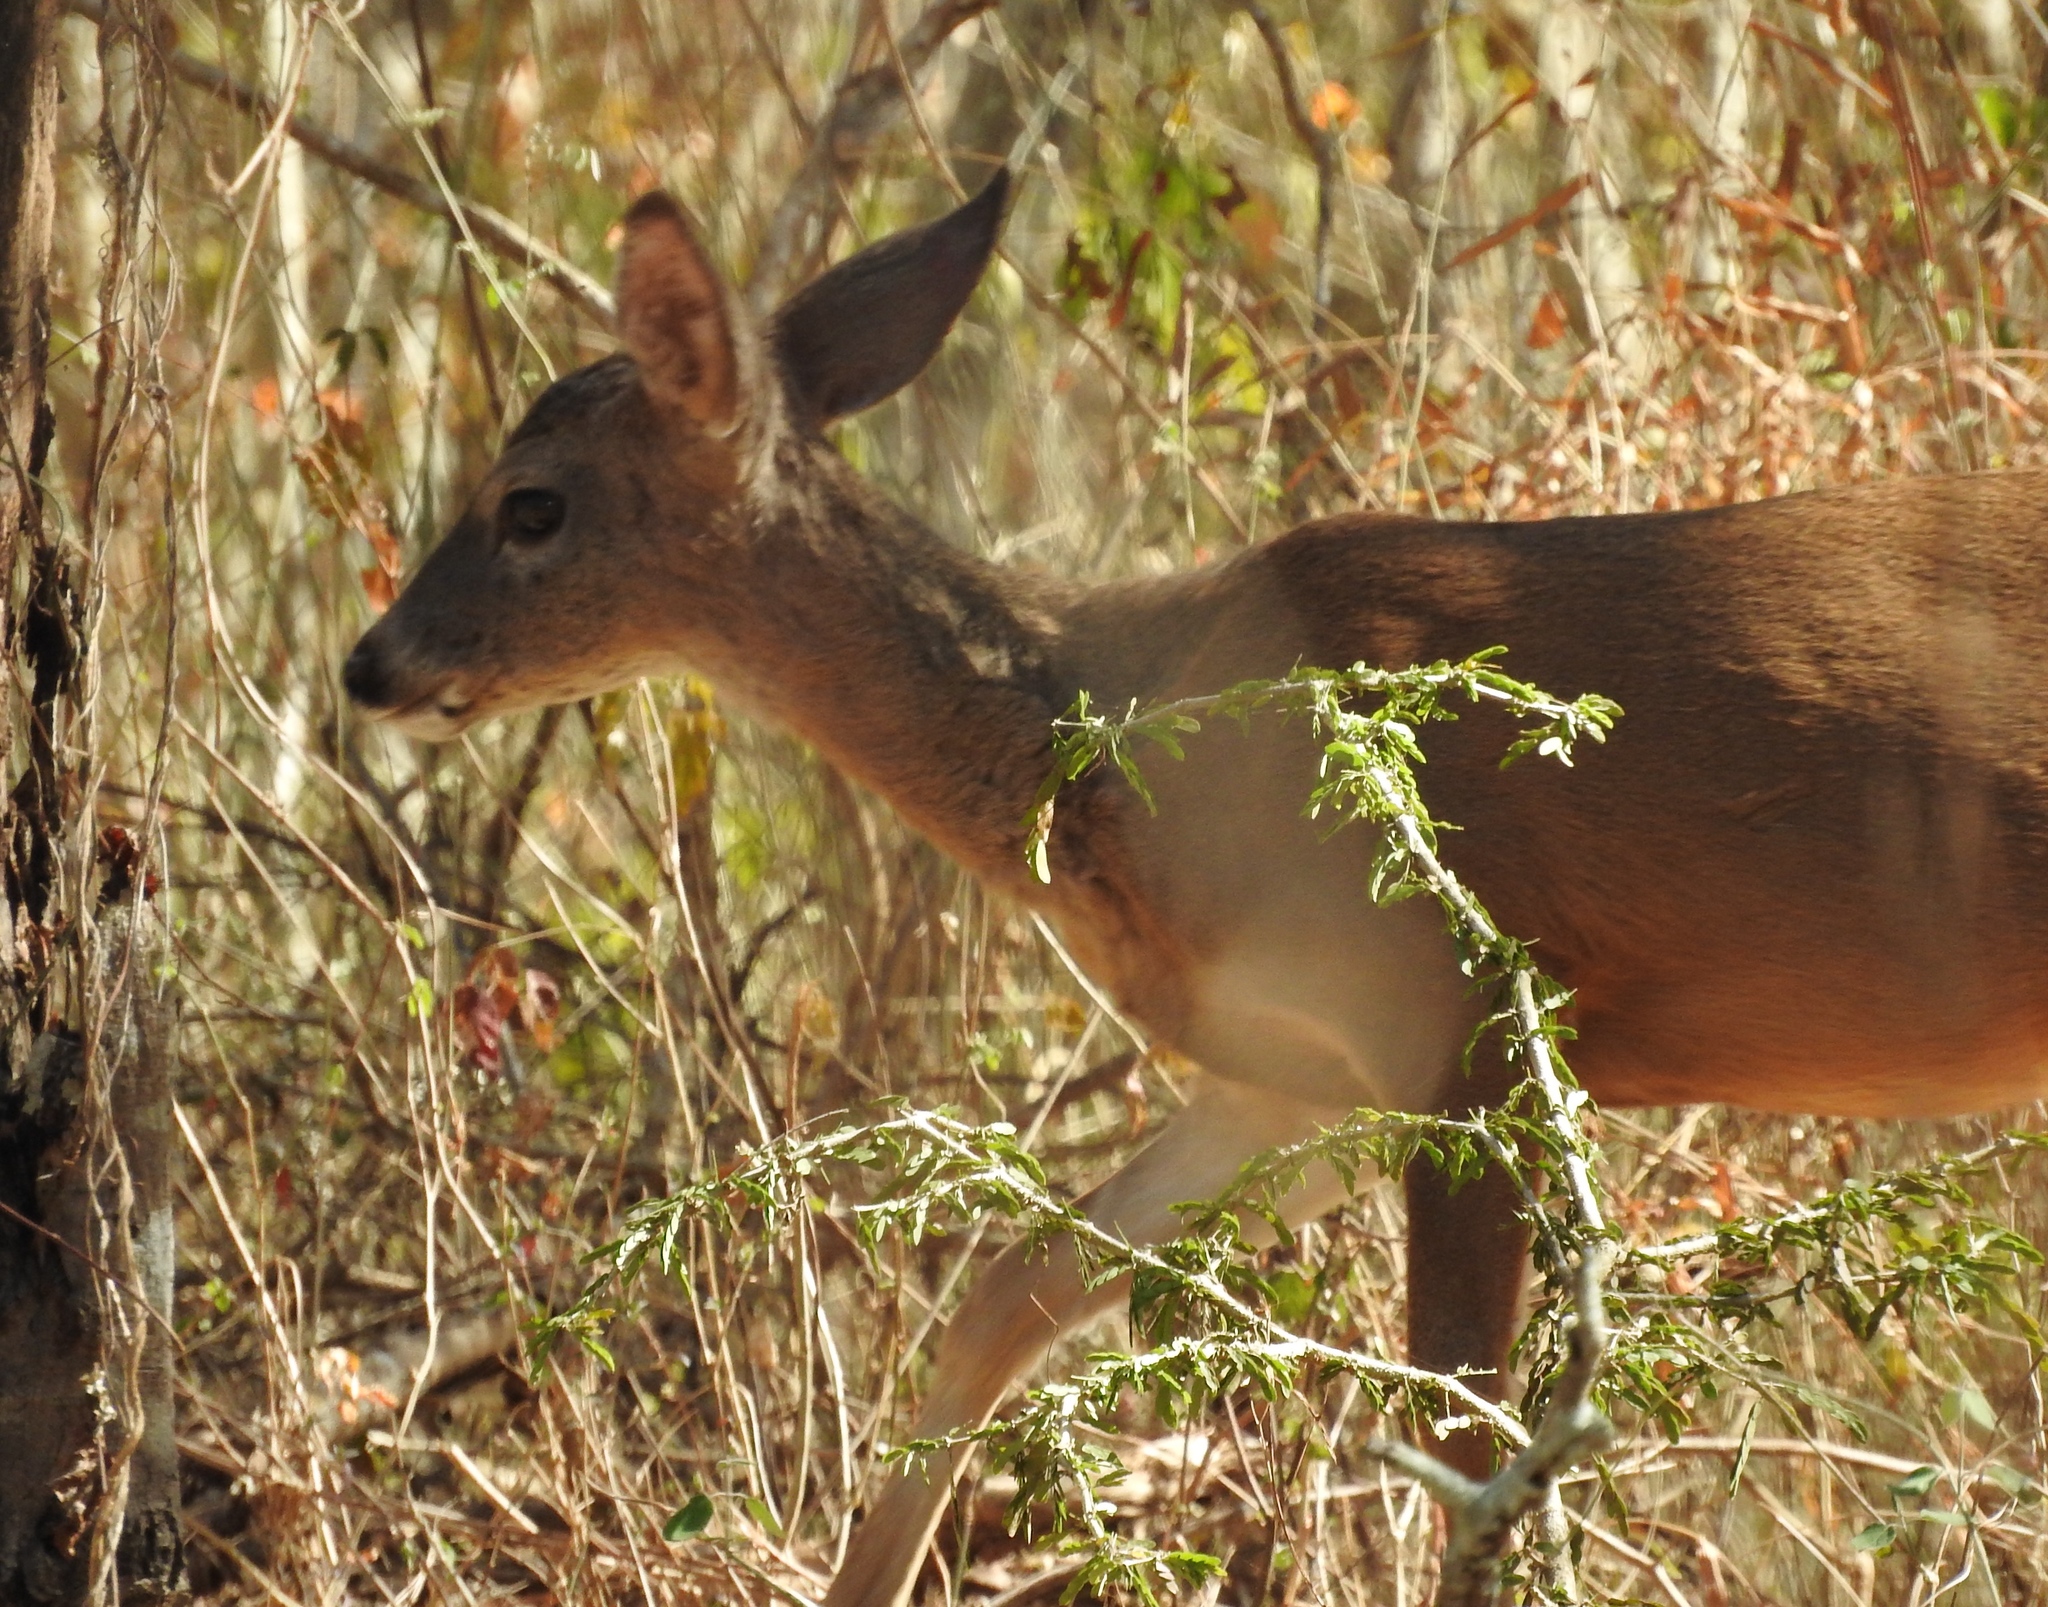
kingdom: Animalia
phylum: Chordata
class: Mammalia
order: Artiodactyla
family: Cervidae
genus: Odocoileus
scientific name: Odocoileus virginianus
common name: White-tailed deer
